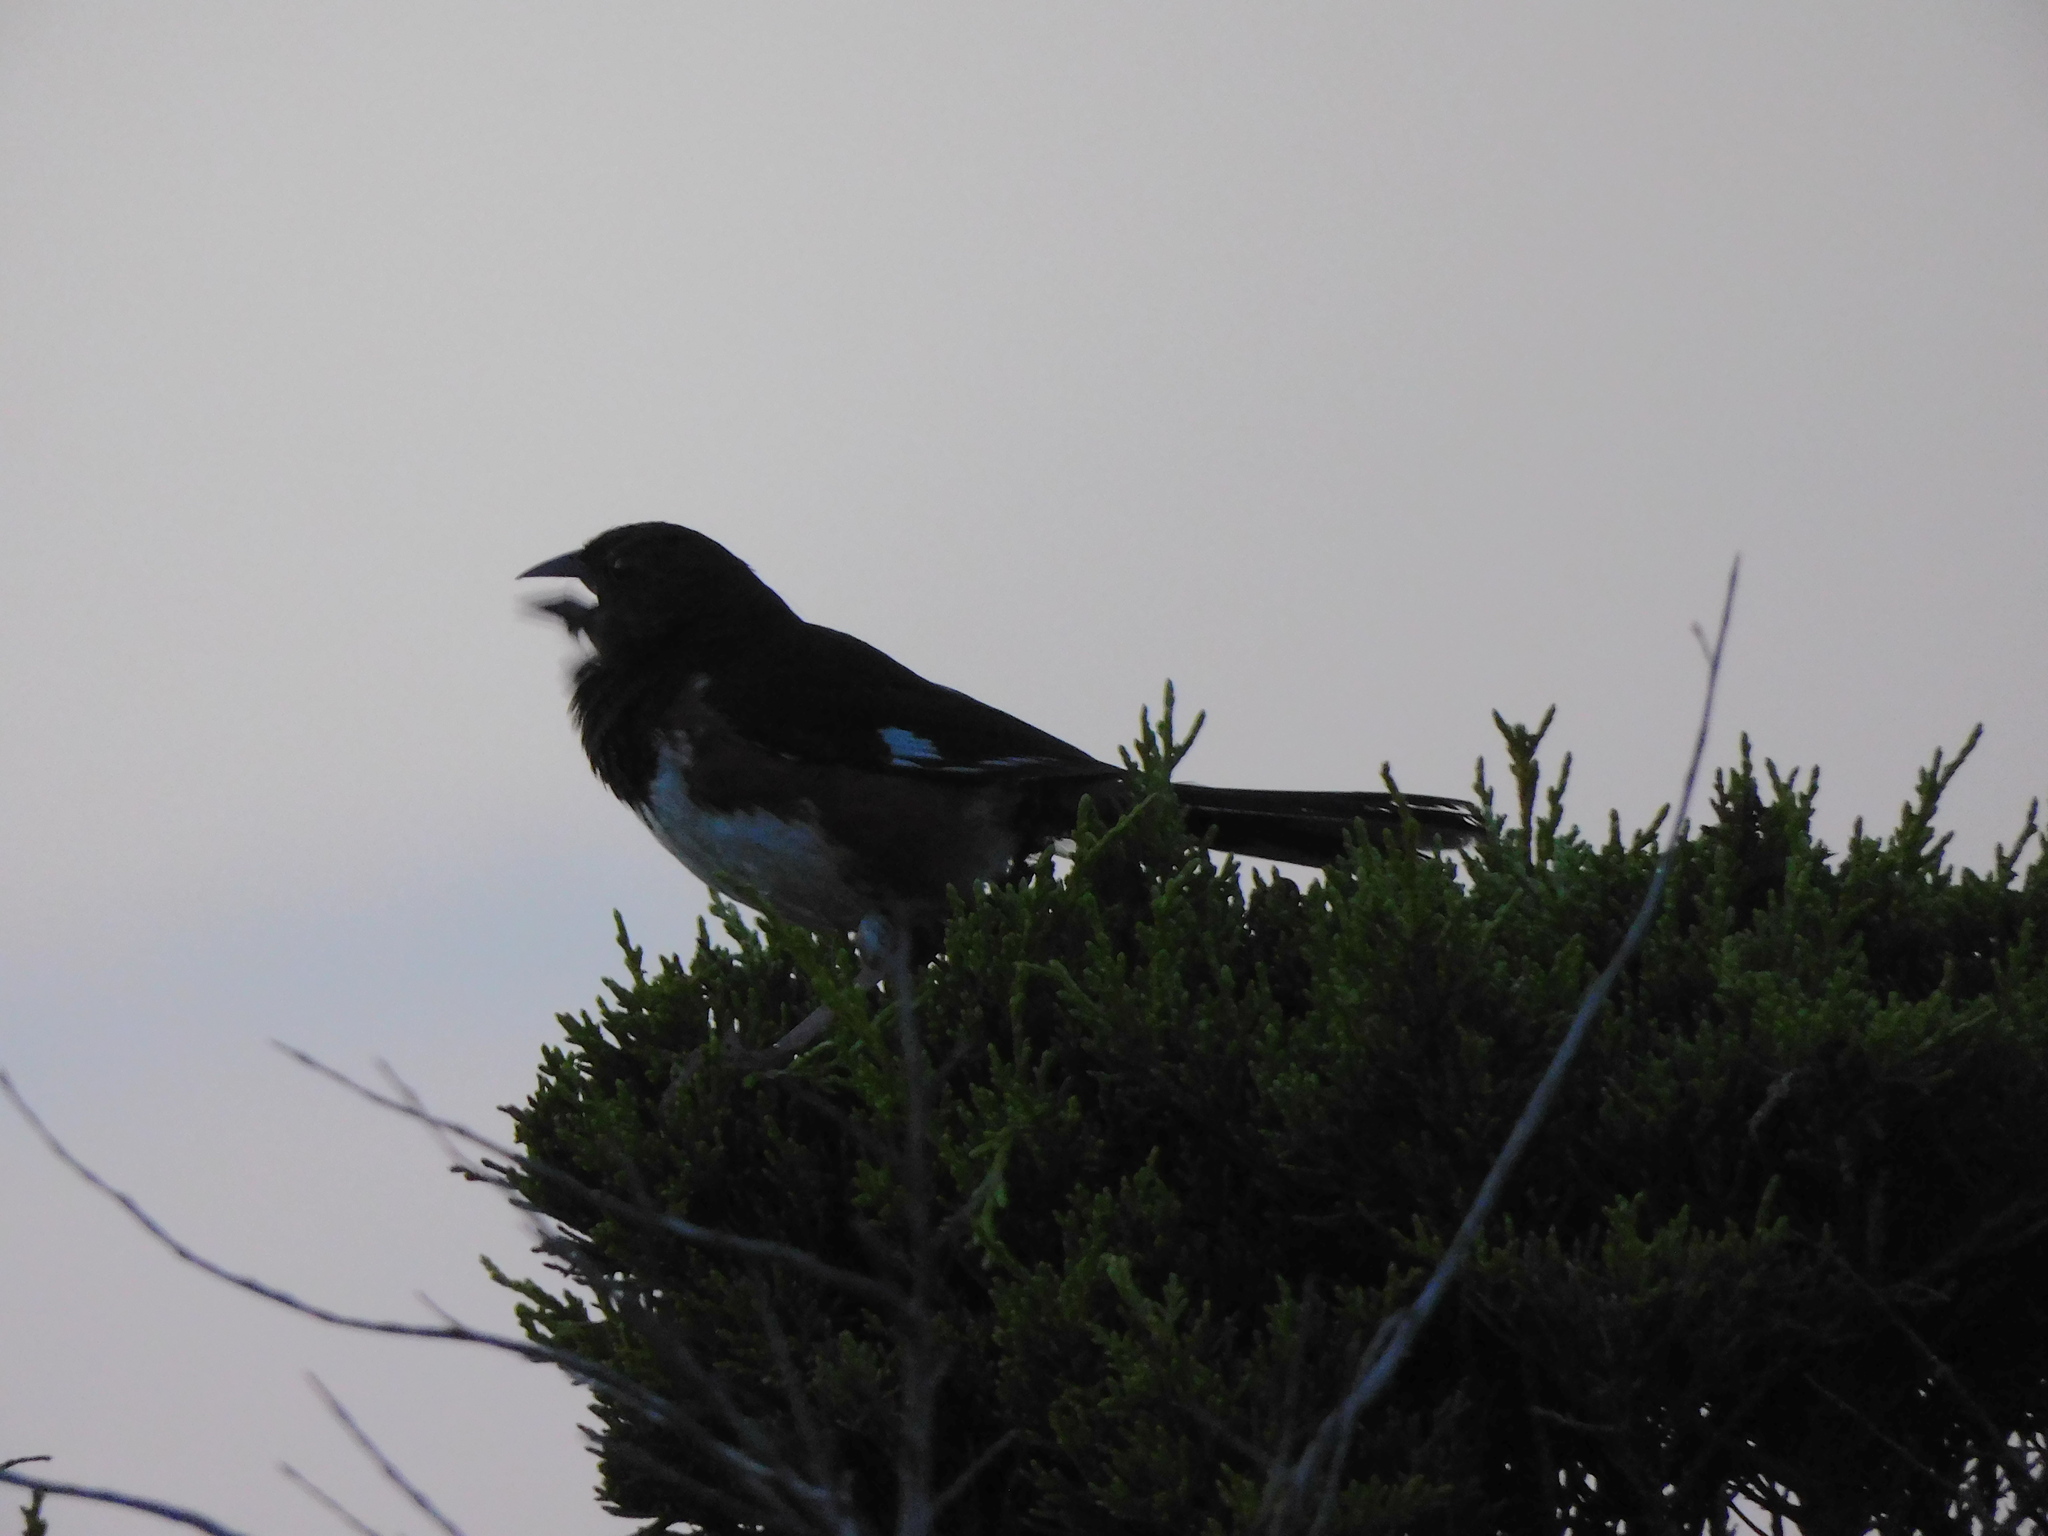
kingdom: Animalia
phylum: Chordata
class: Aves
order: Passeriformes
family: Passerellidae
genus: Pipilo
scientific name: Pipilo erythrophthalmus
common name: Eastern towhee
